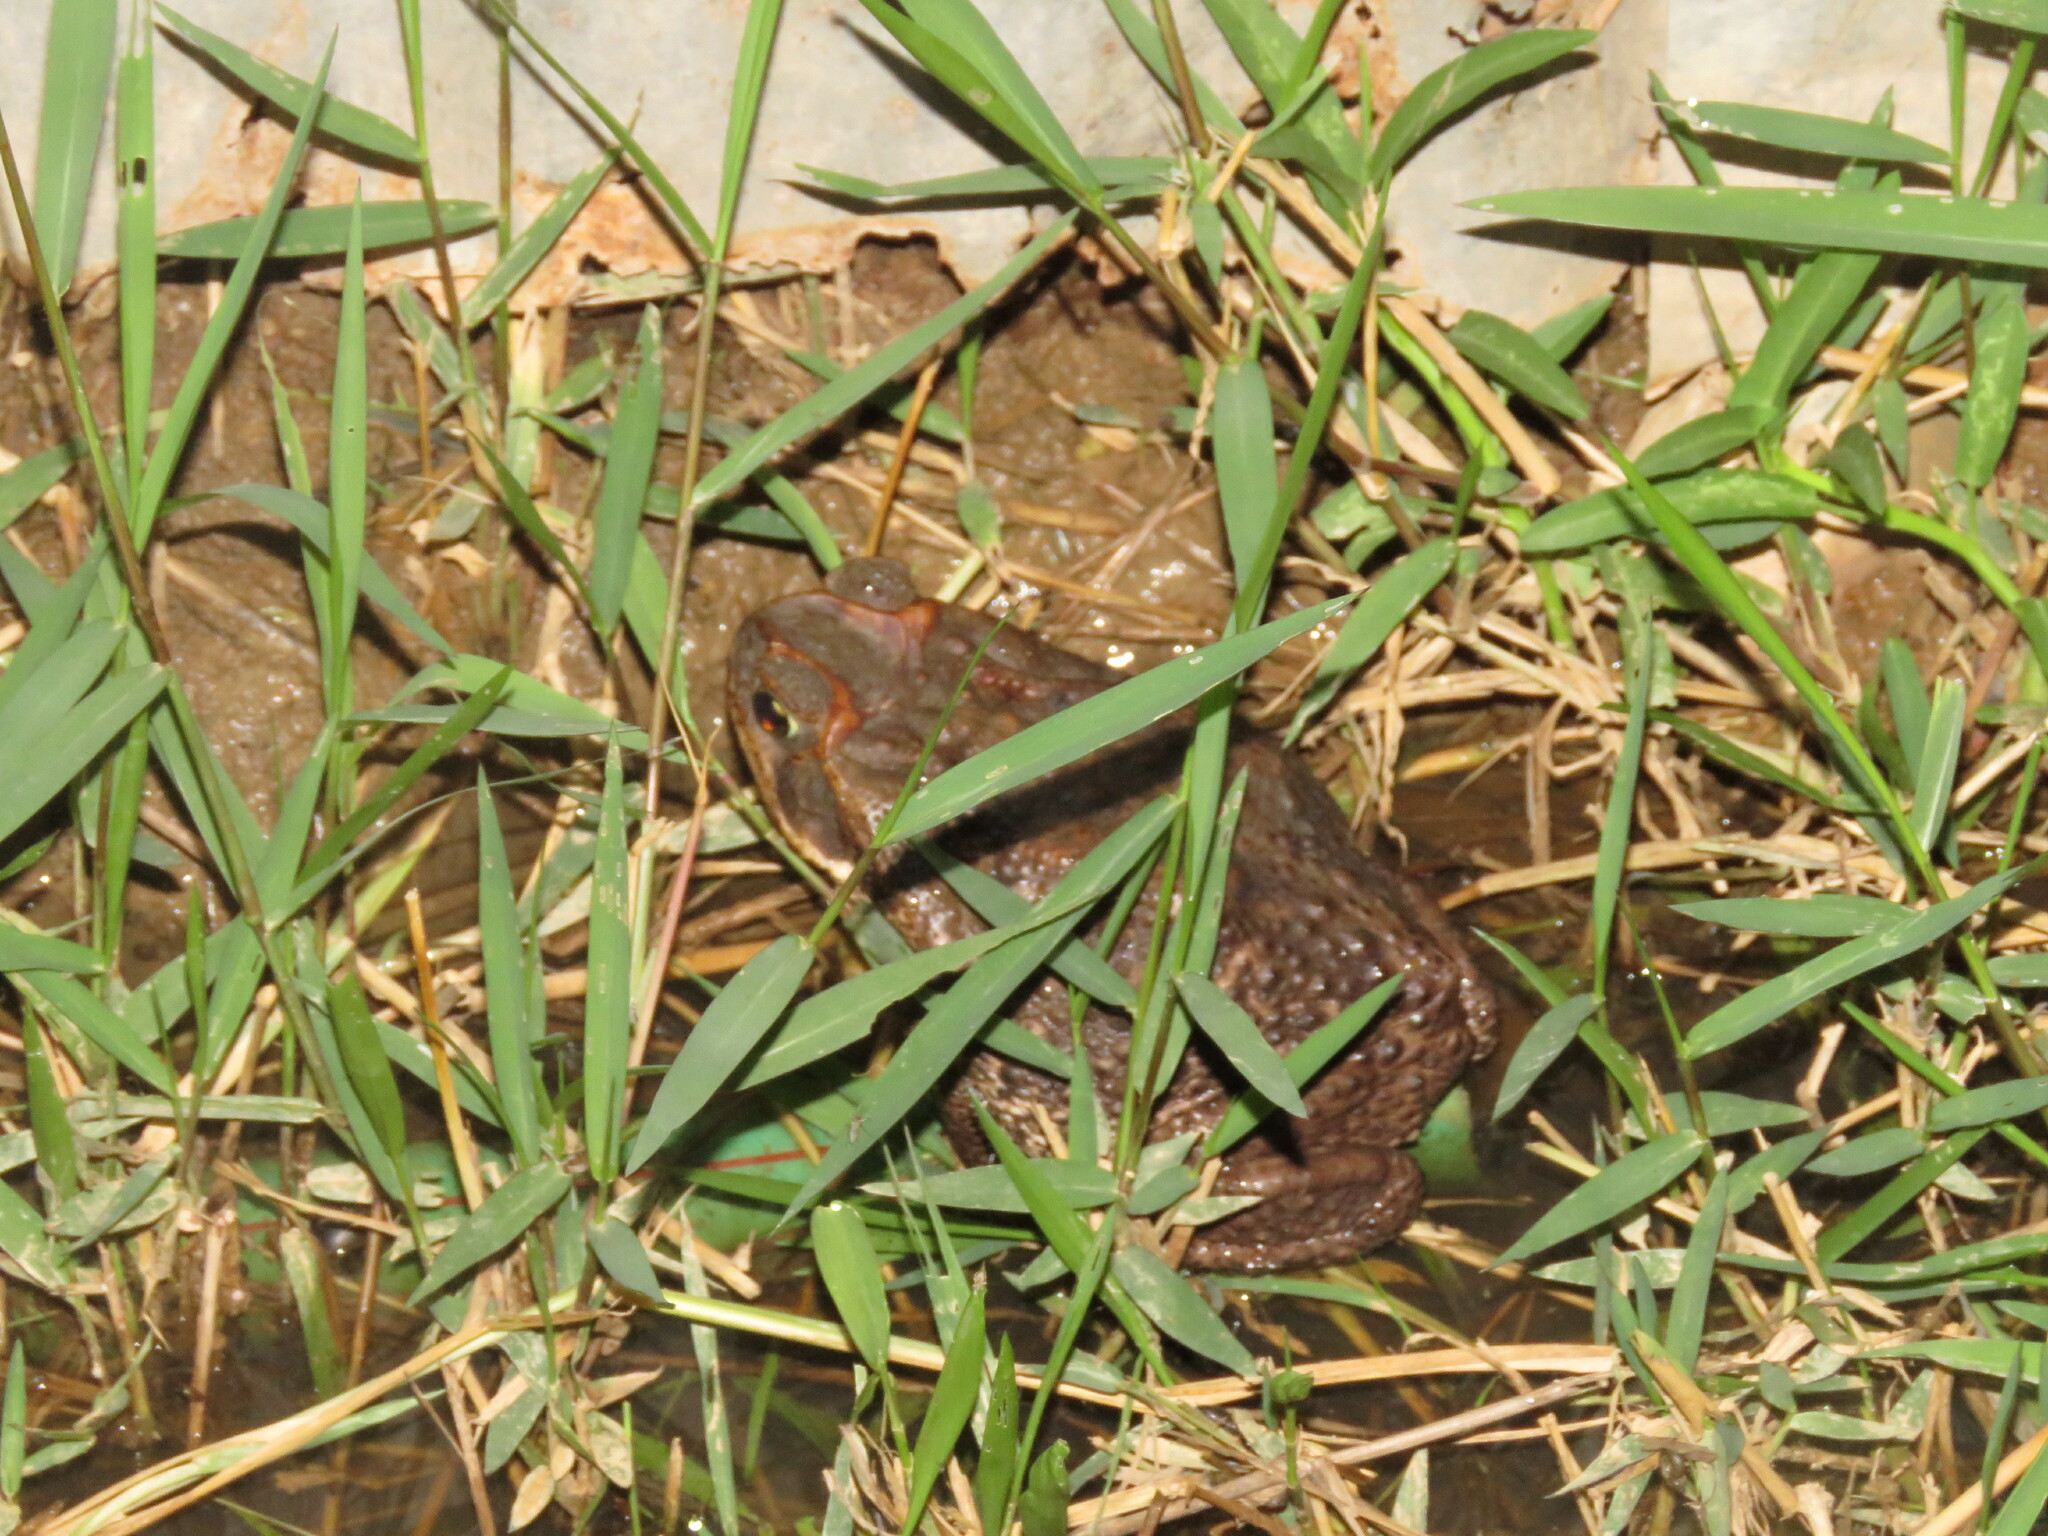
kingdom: Animalia
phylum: Chordata
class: Amphibia
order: Anura
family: Bufonidae
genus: Rhinella
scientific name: Rhinella diptycha
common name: Cope's toad
